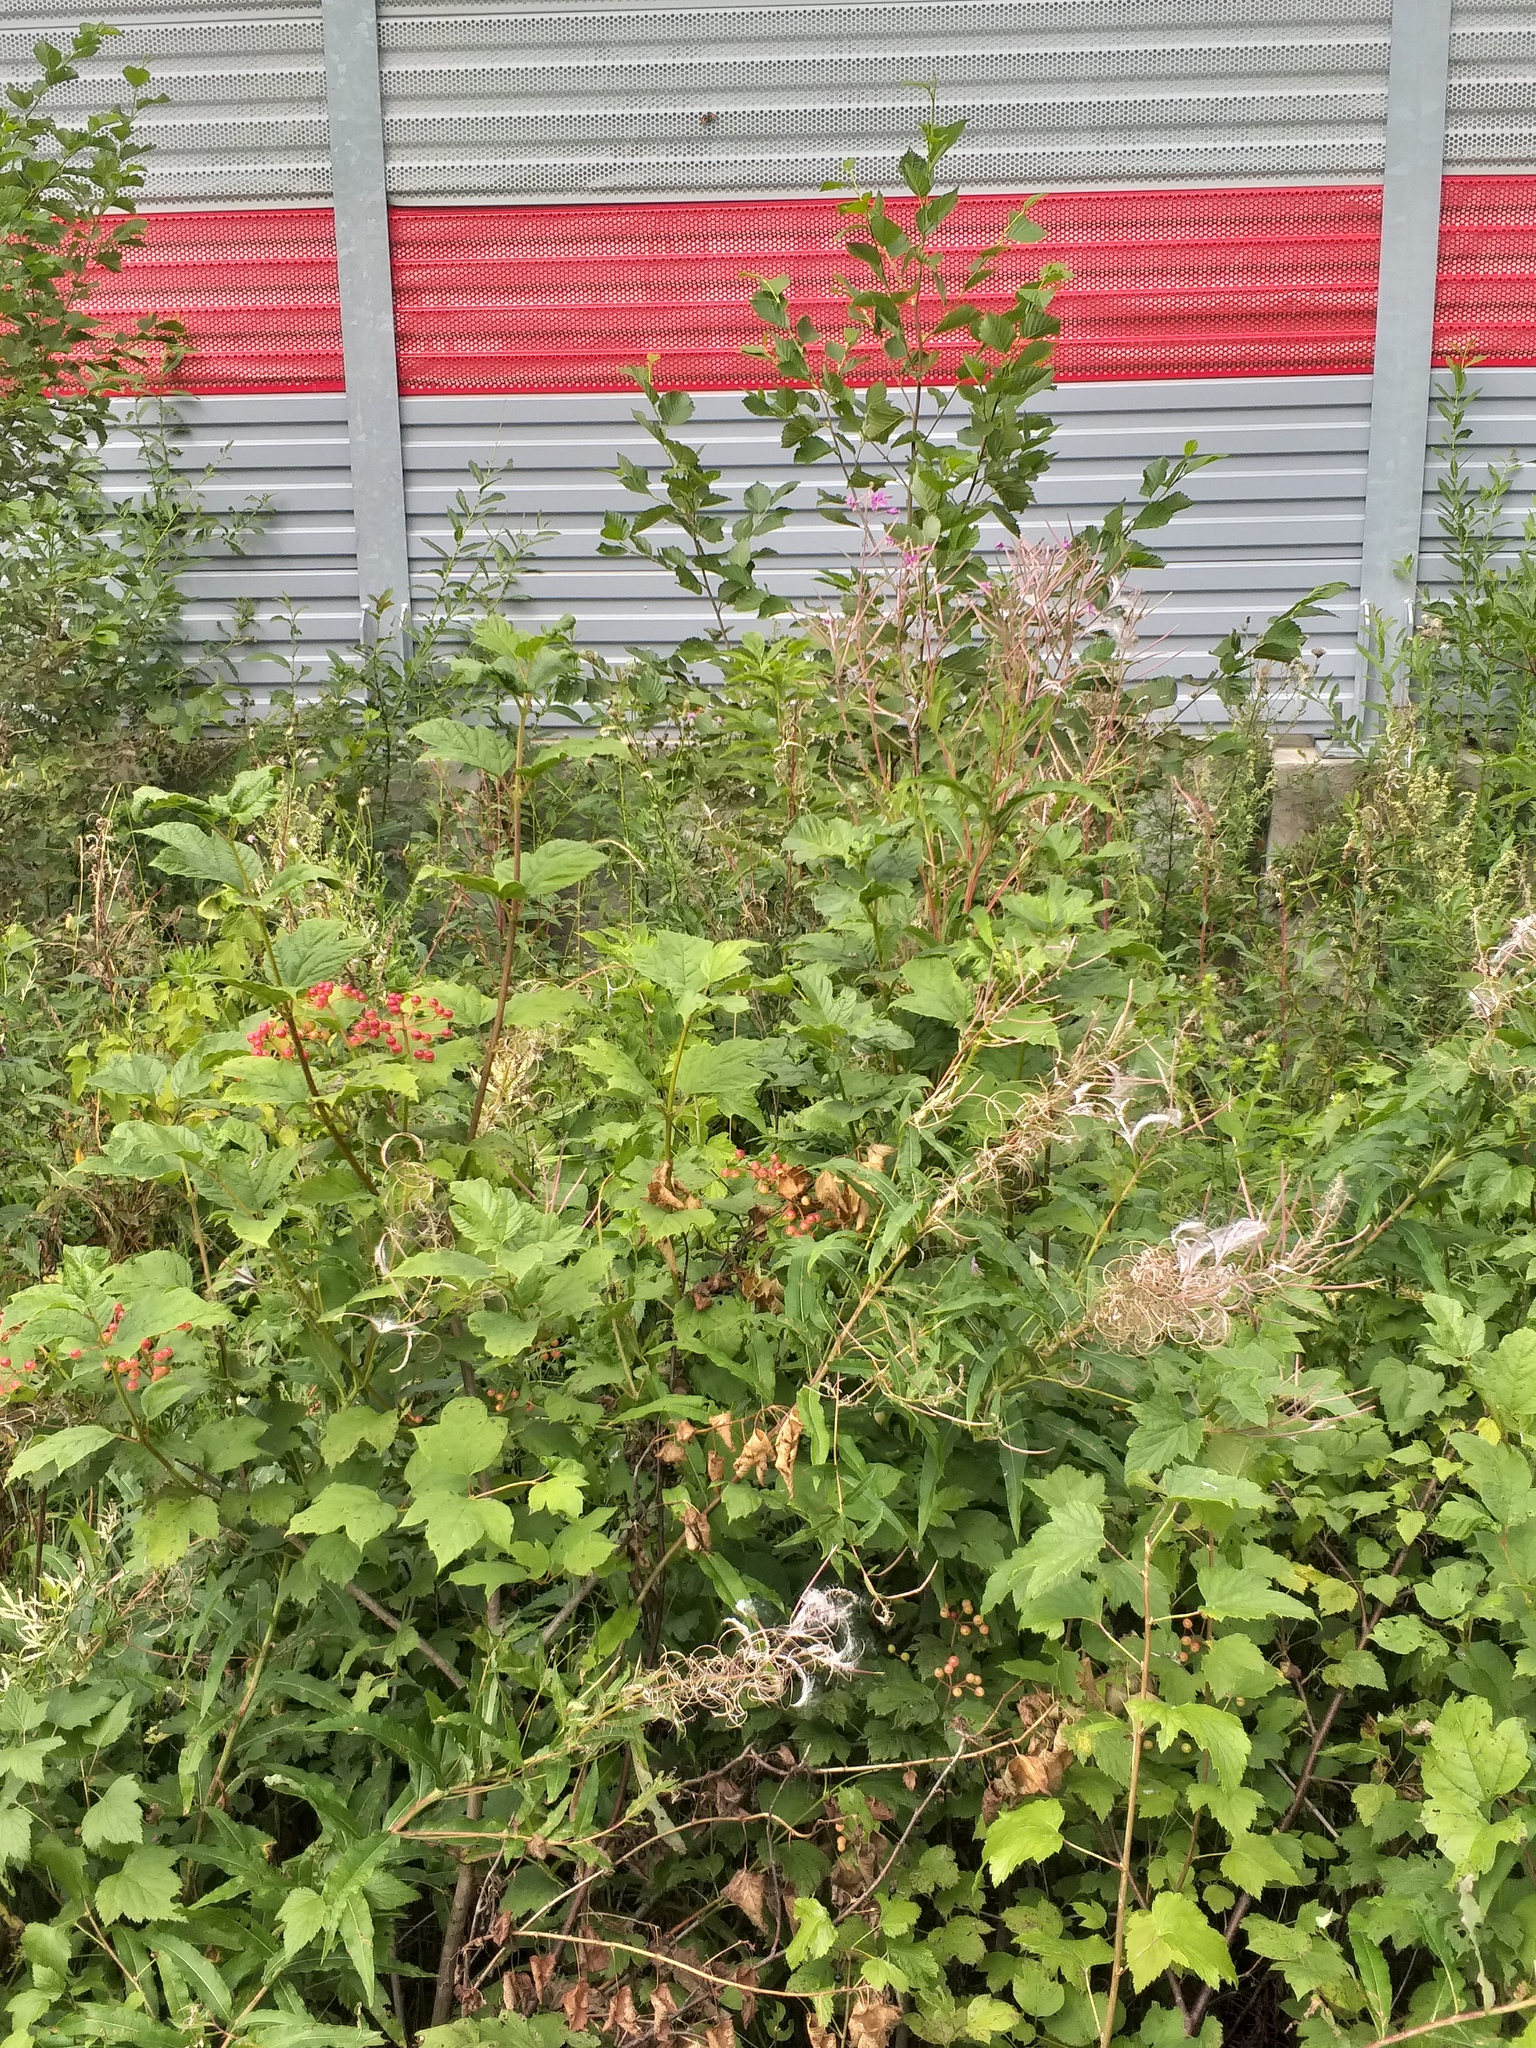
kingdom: Plantae
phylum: Tracheophyta
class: Magnoliopsida
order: Myrtales
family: Onagraceae
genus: Chamaenerion
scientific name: Chamaenerion angustifolium
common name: Fireweed
